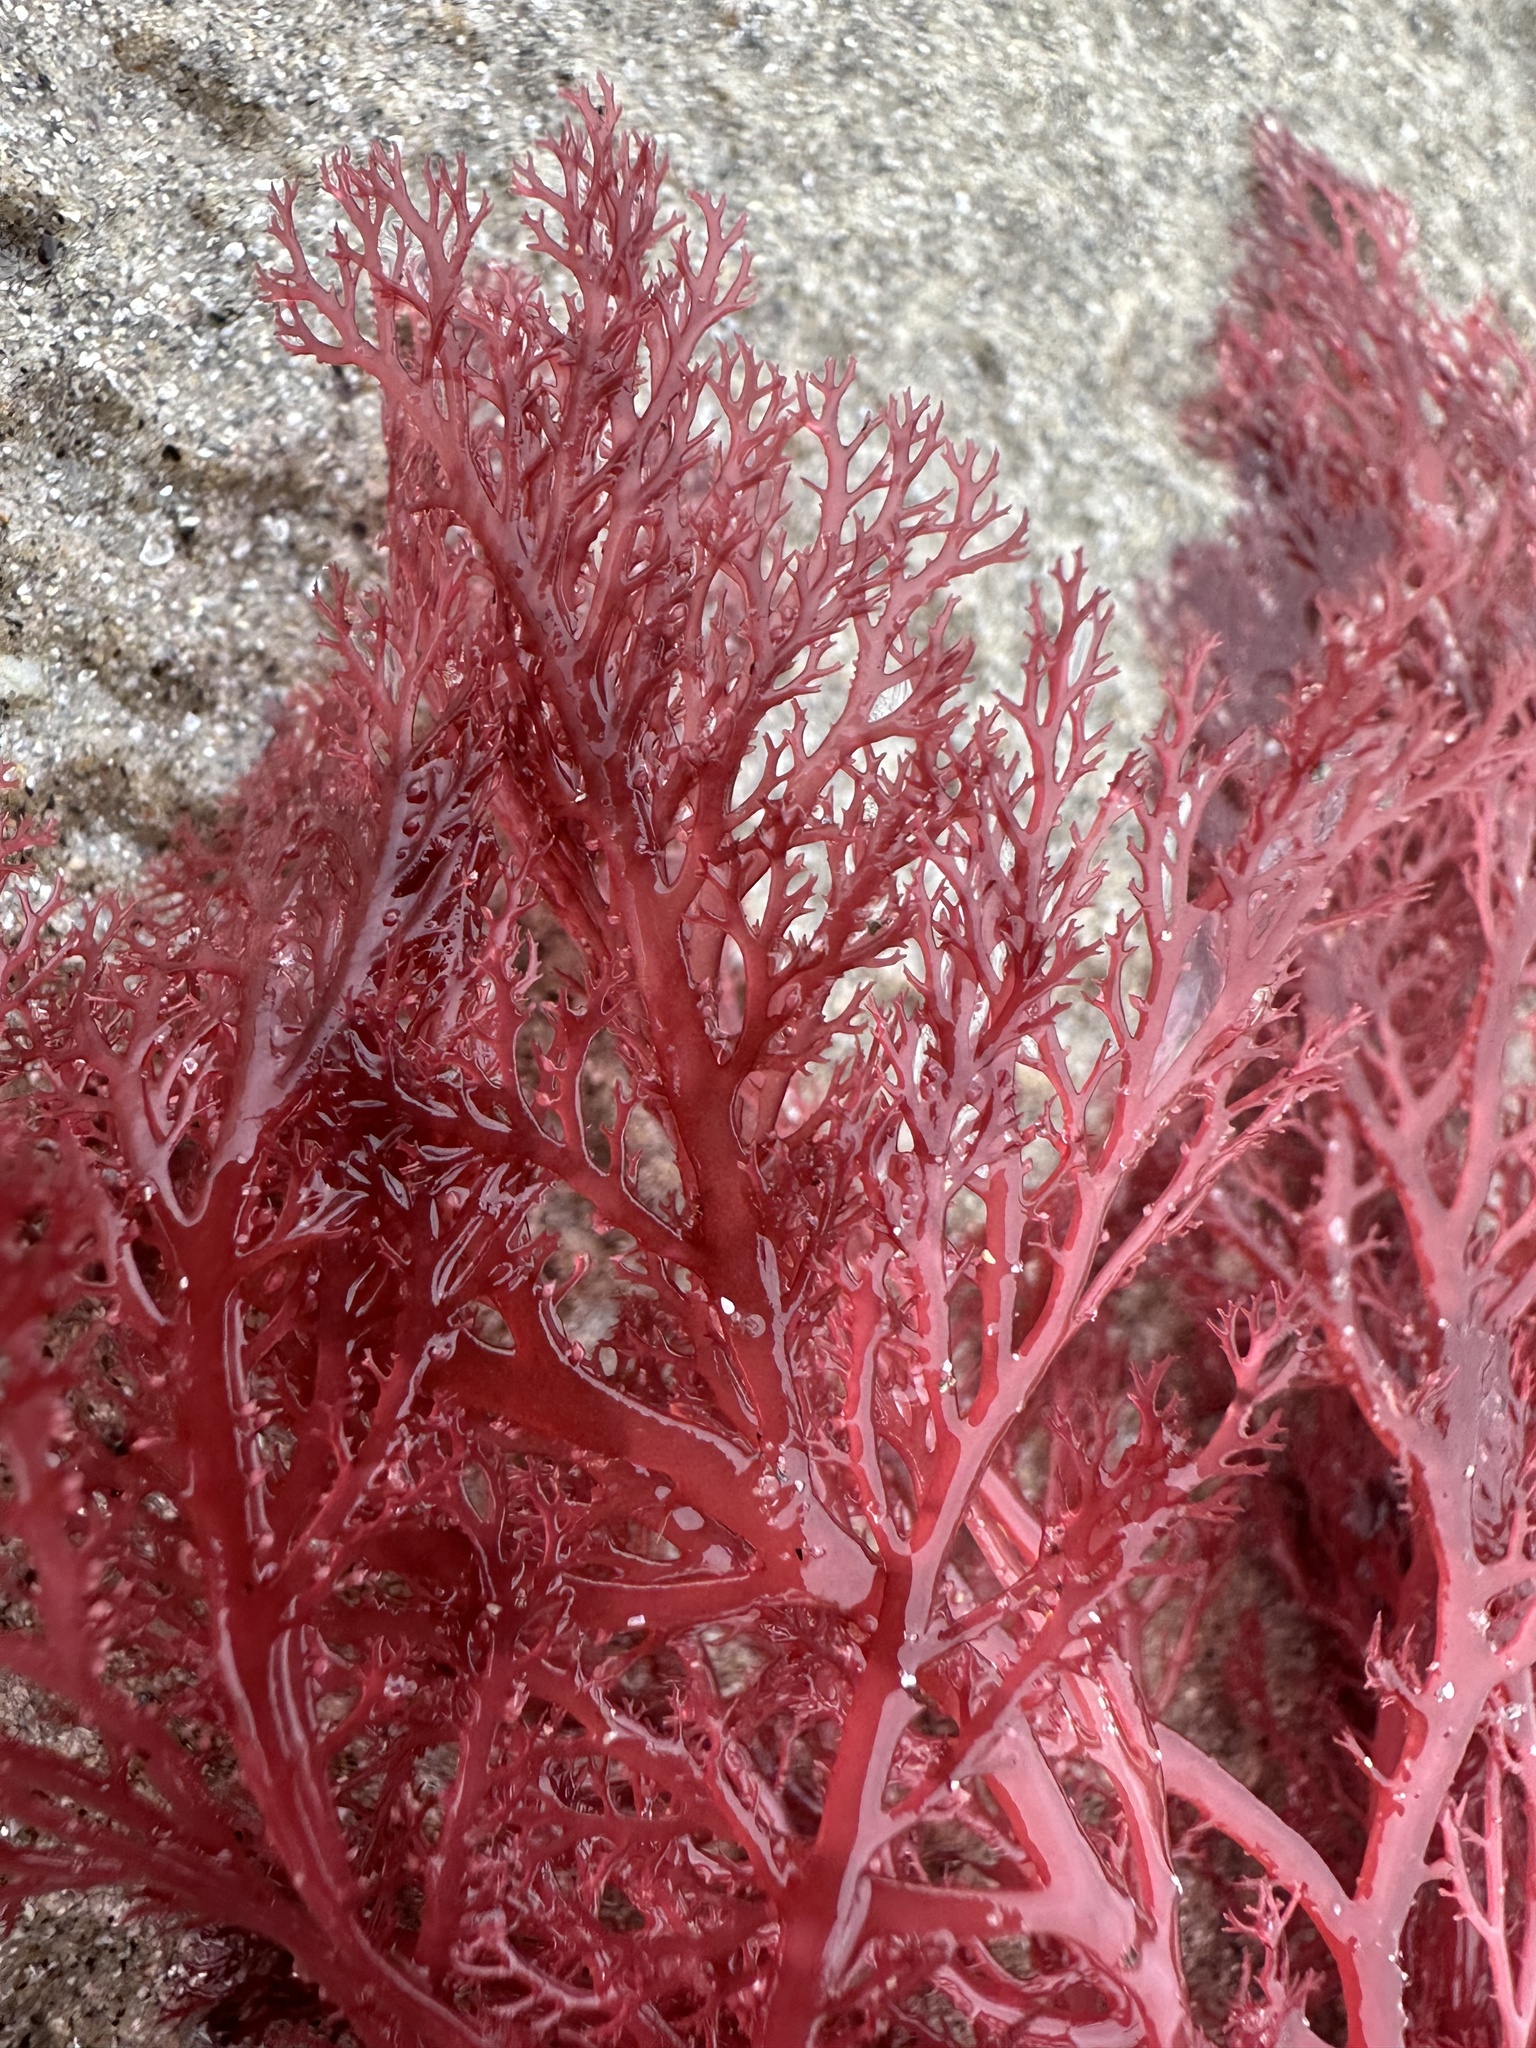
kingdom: Plantae
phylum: Rhodophyta
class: Florideophyceae
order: Gigartinales
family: Sphaerococcaceae
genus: Sphaerococcus
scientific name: Sphaerococcus coronopifolius
